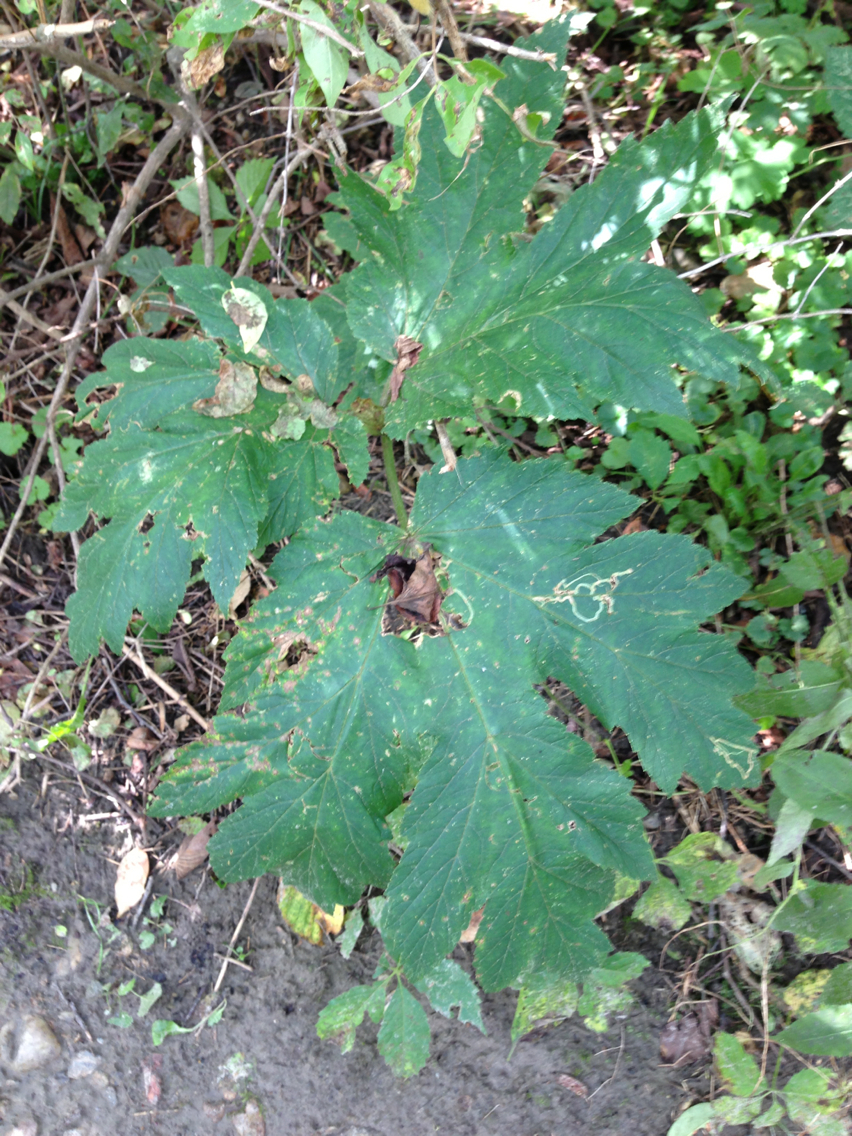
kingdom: Plantae
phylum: Tracheophyta
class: Magnoliopsida
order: Apiales
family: Apiaceae
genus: Heracleum
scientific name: Heracleum maximum
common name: American cow parsnip
